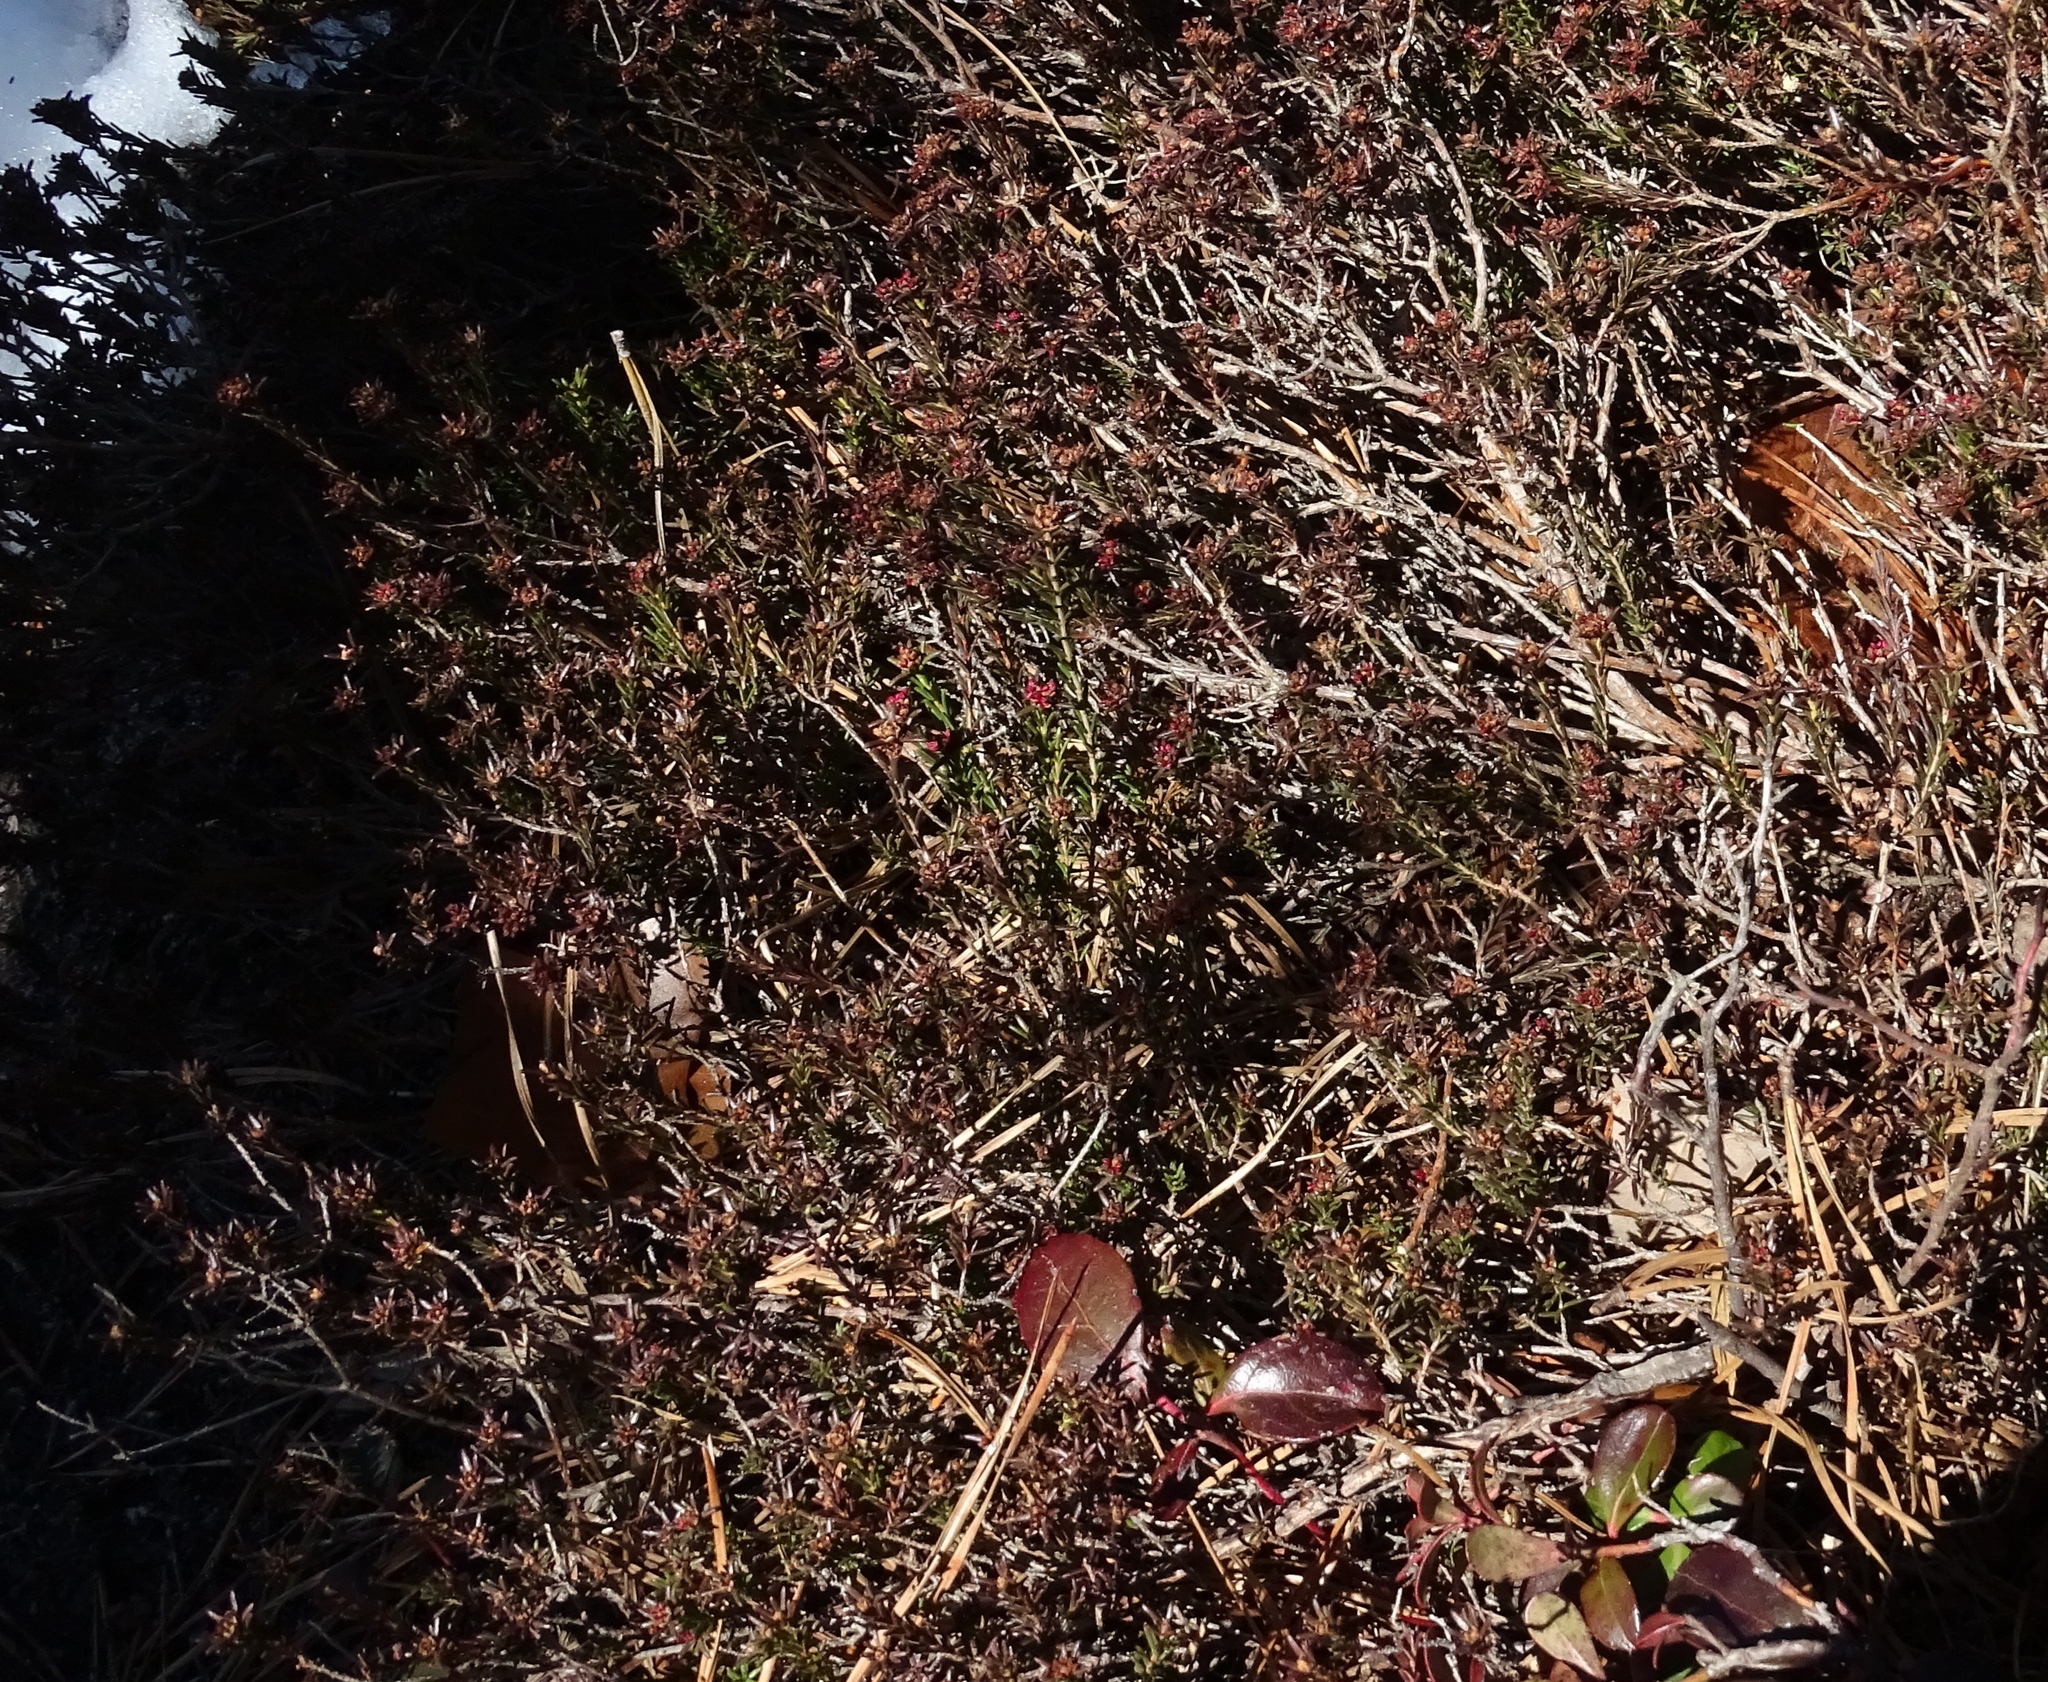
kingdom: Plantae
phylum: Tracheophyta
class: Magnoliopsida
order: Ericales
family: Ericaceae
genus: Corema
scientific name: Corema conradii
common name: Broom-crowberry
